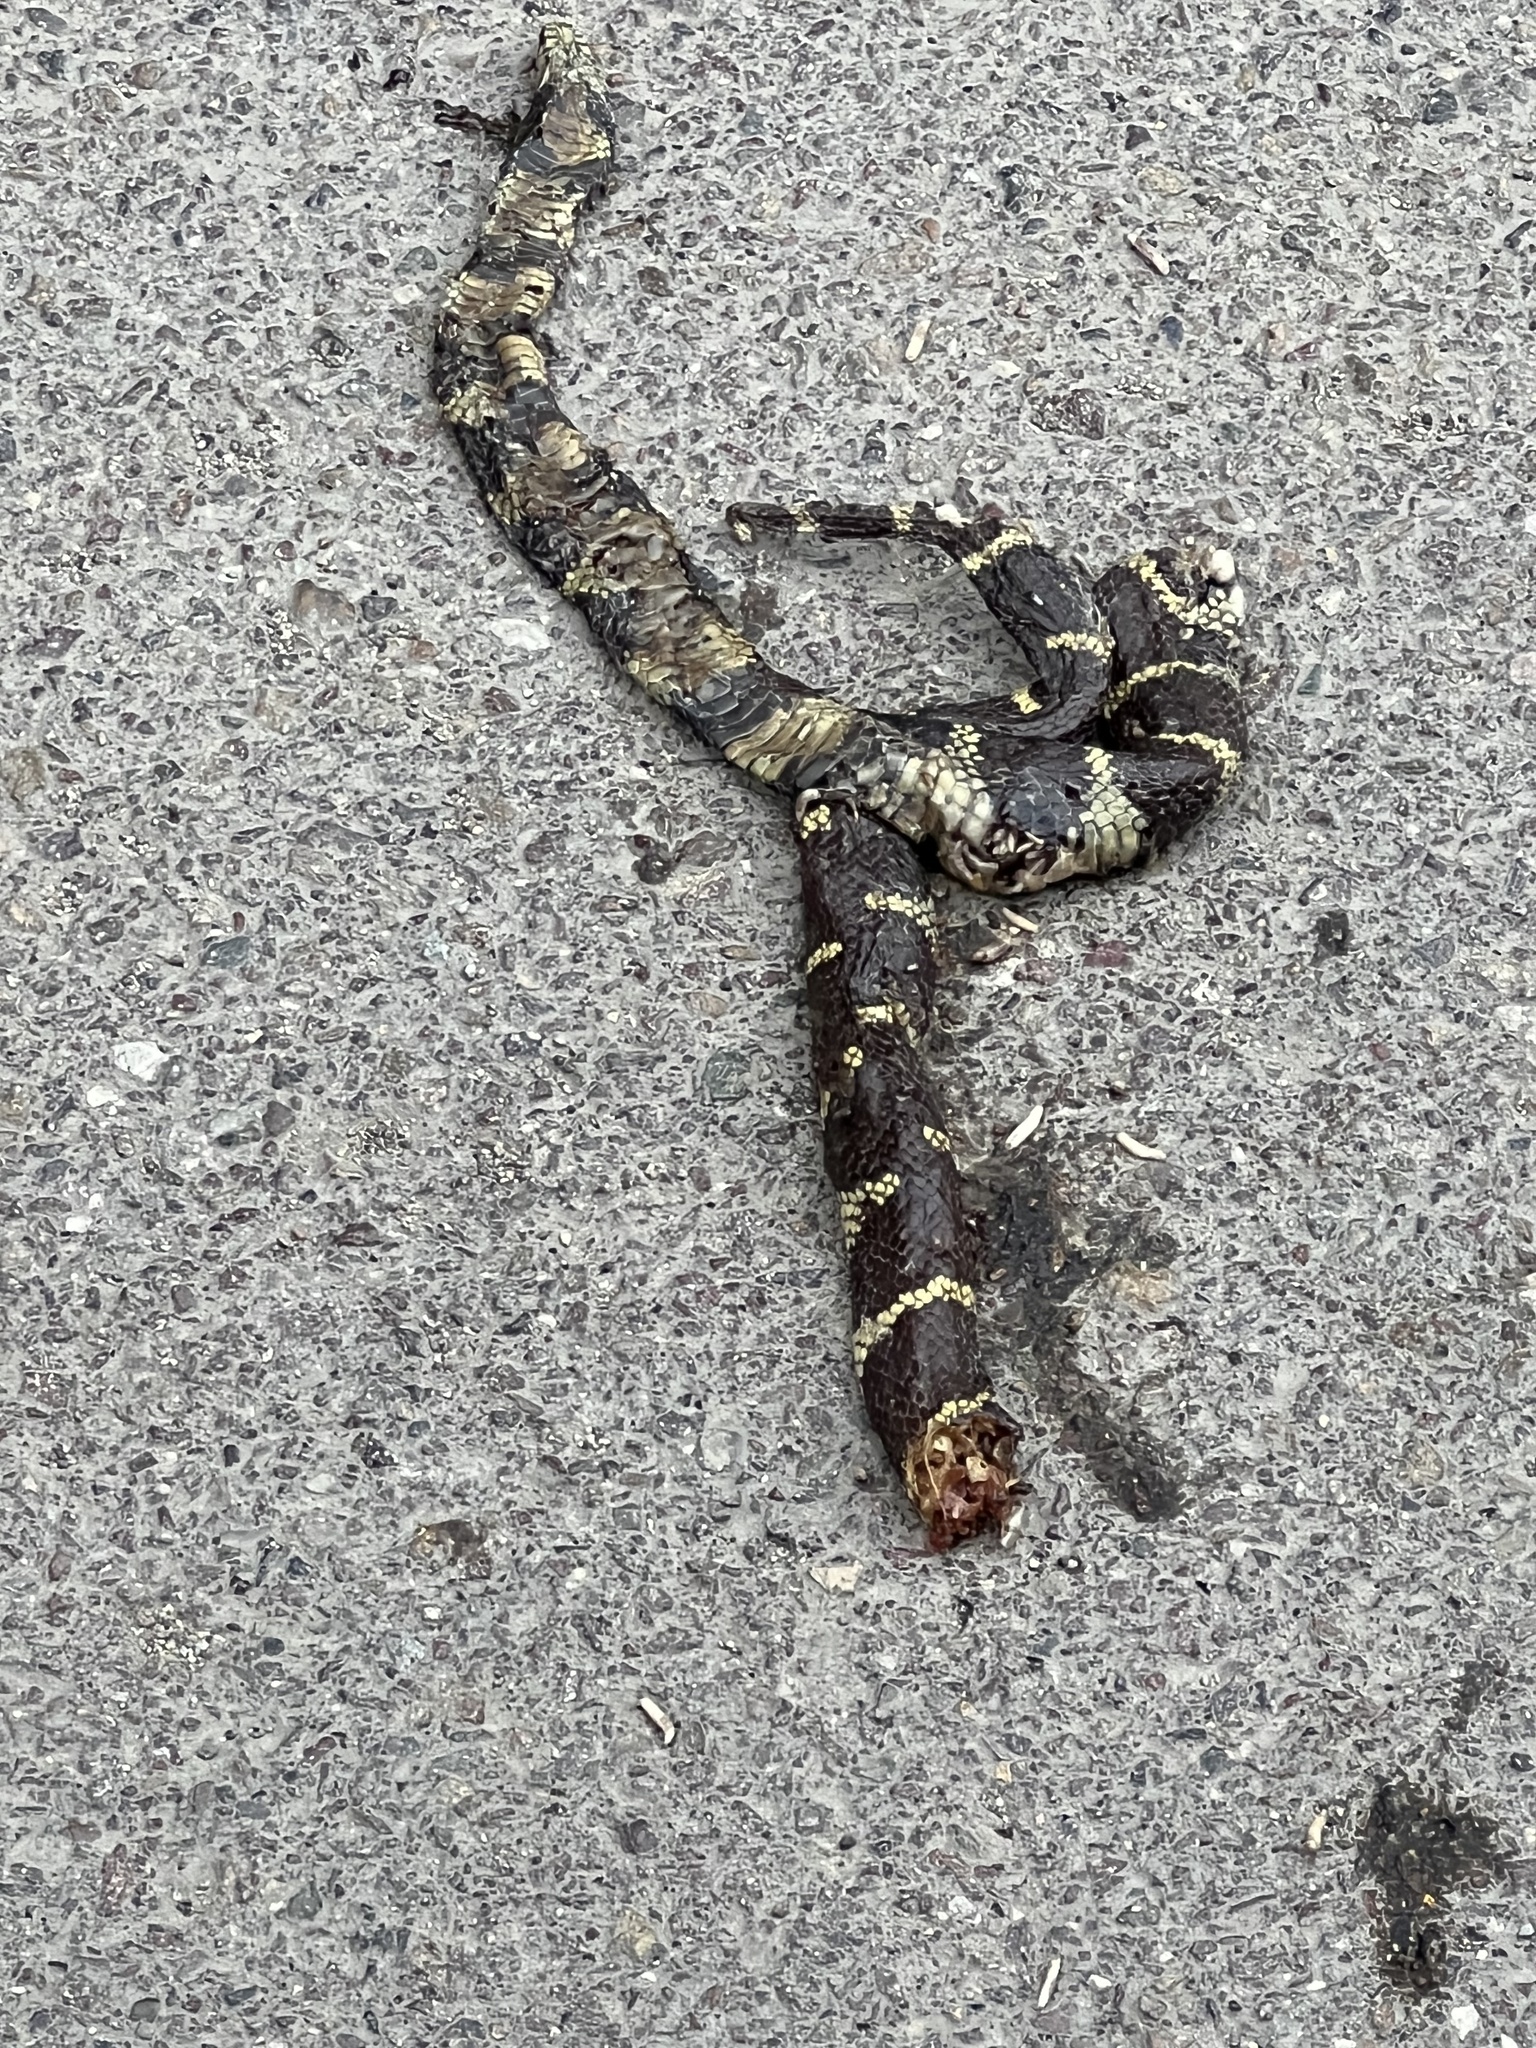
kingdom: Animalia
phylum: Chordata
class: Squamata
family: Colubridae
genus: Lampropeltis
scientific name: Lampropeltis californiae
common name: California kingsnake
